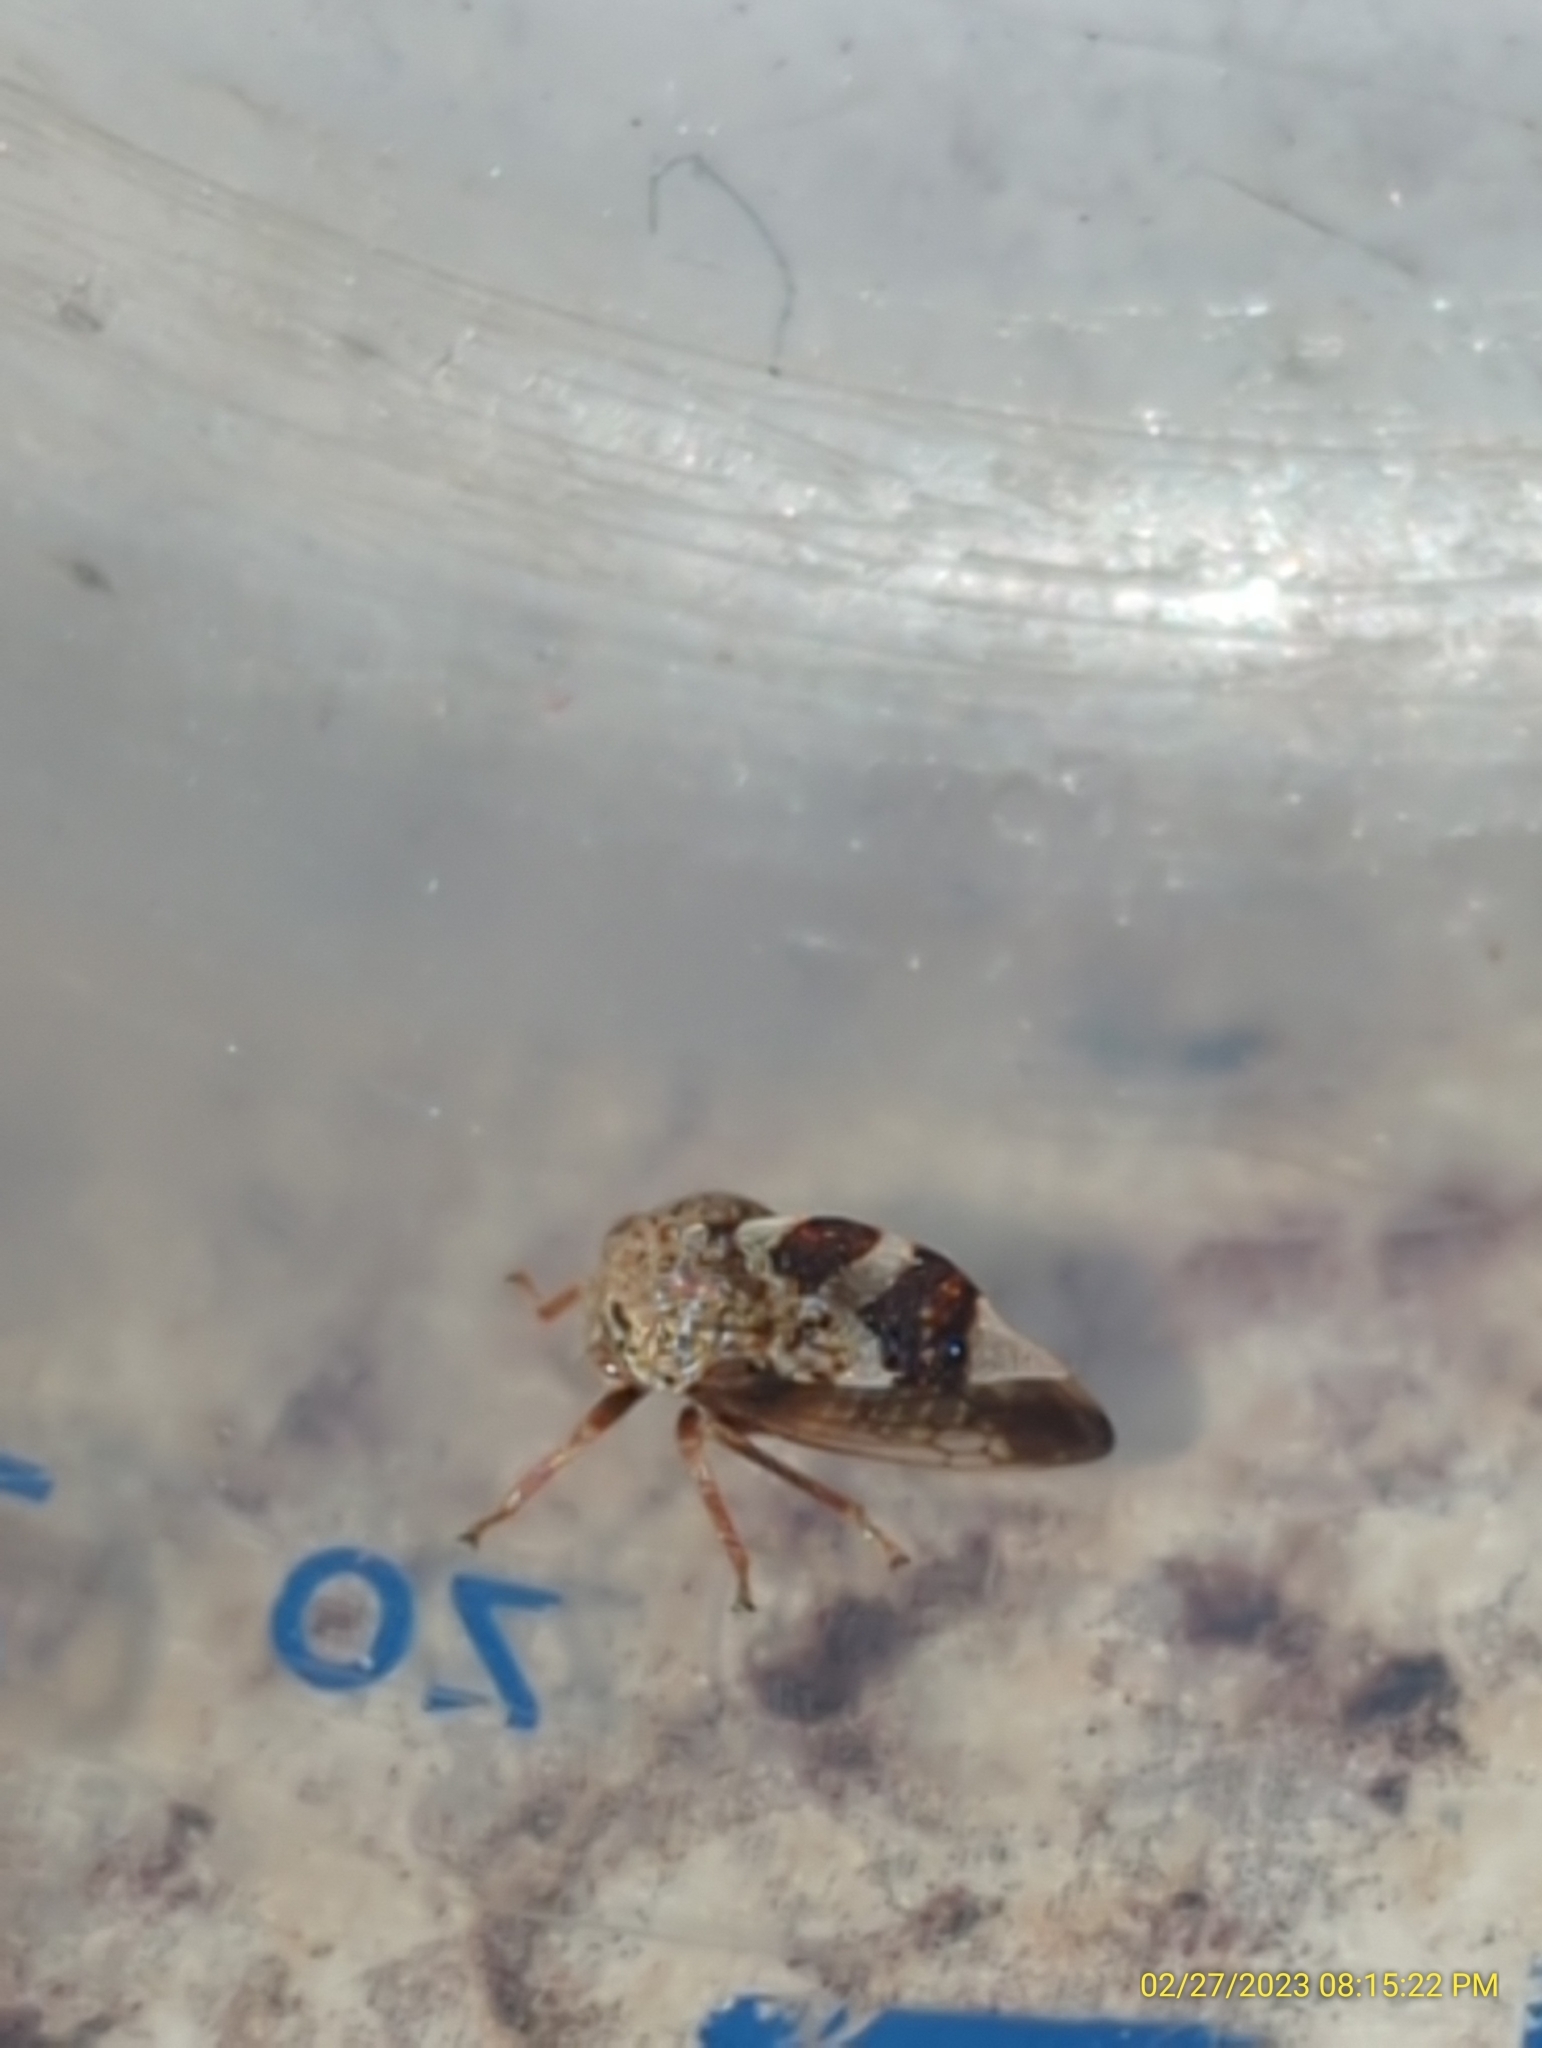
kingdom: Animalia
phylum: Arthropoda
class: Insecta
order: Hemiptera
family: Membracidae
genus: Cyrtolobus
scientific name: Cyrtolobus tuberosa
